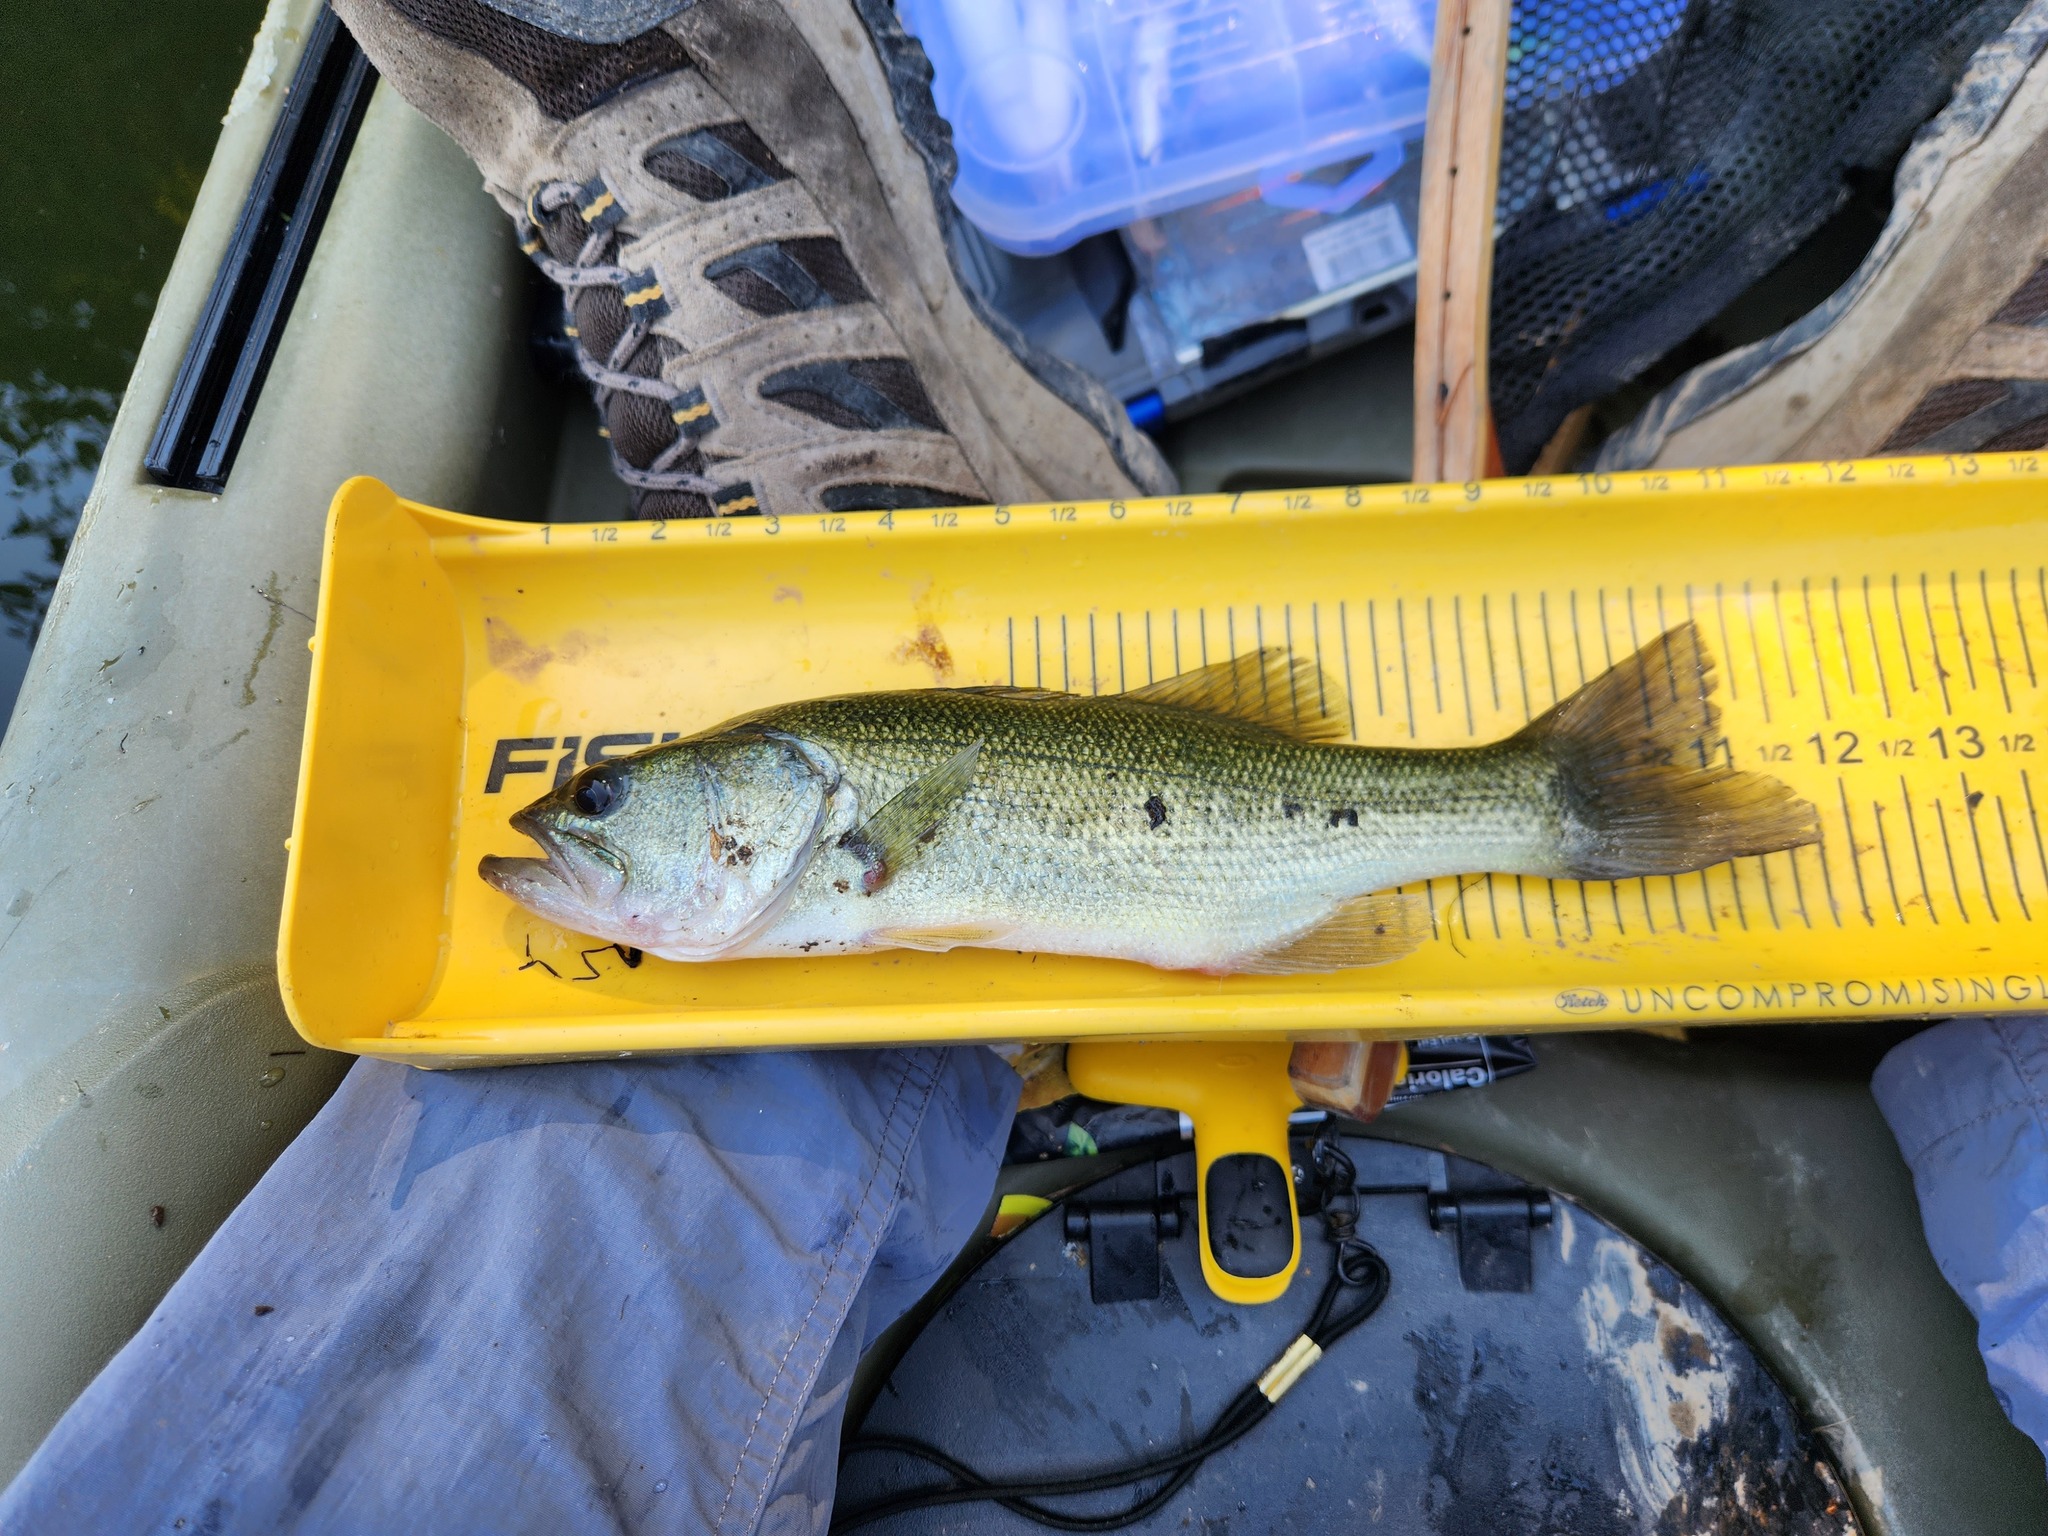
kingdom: Animalia
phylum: Chordata
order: Perciformes
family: Centrarchidae
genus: Micropterus
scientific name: Micropterus
